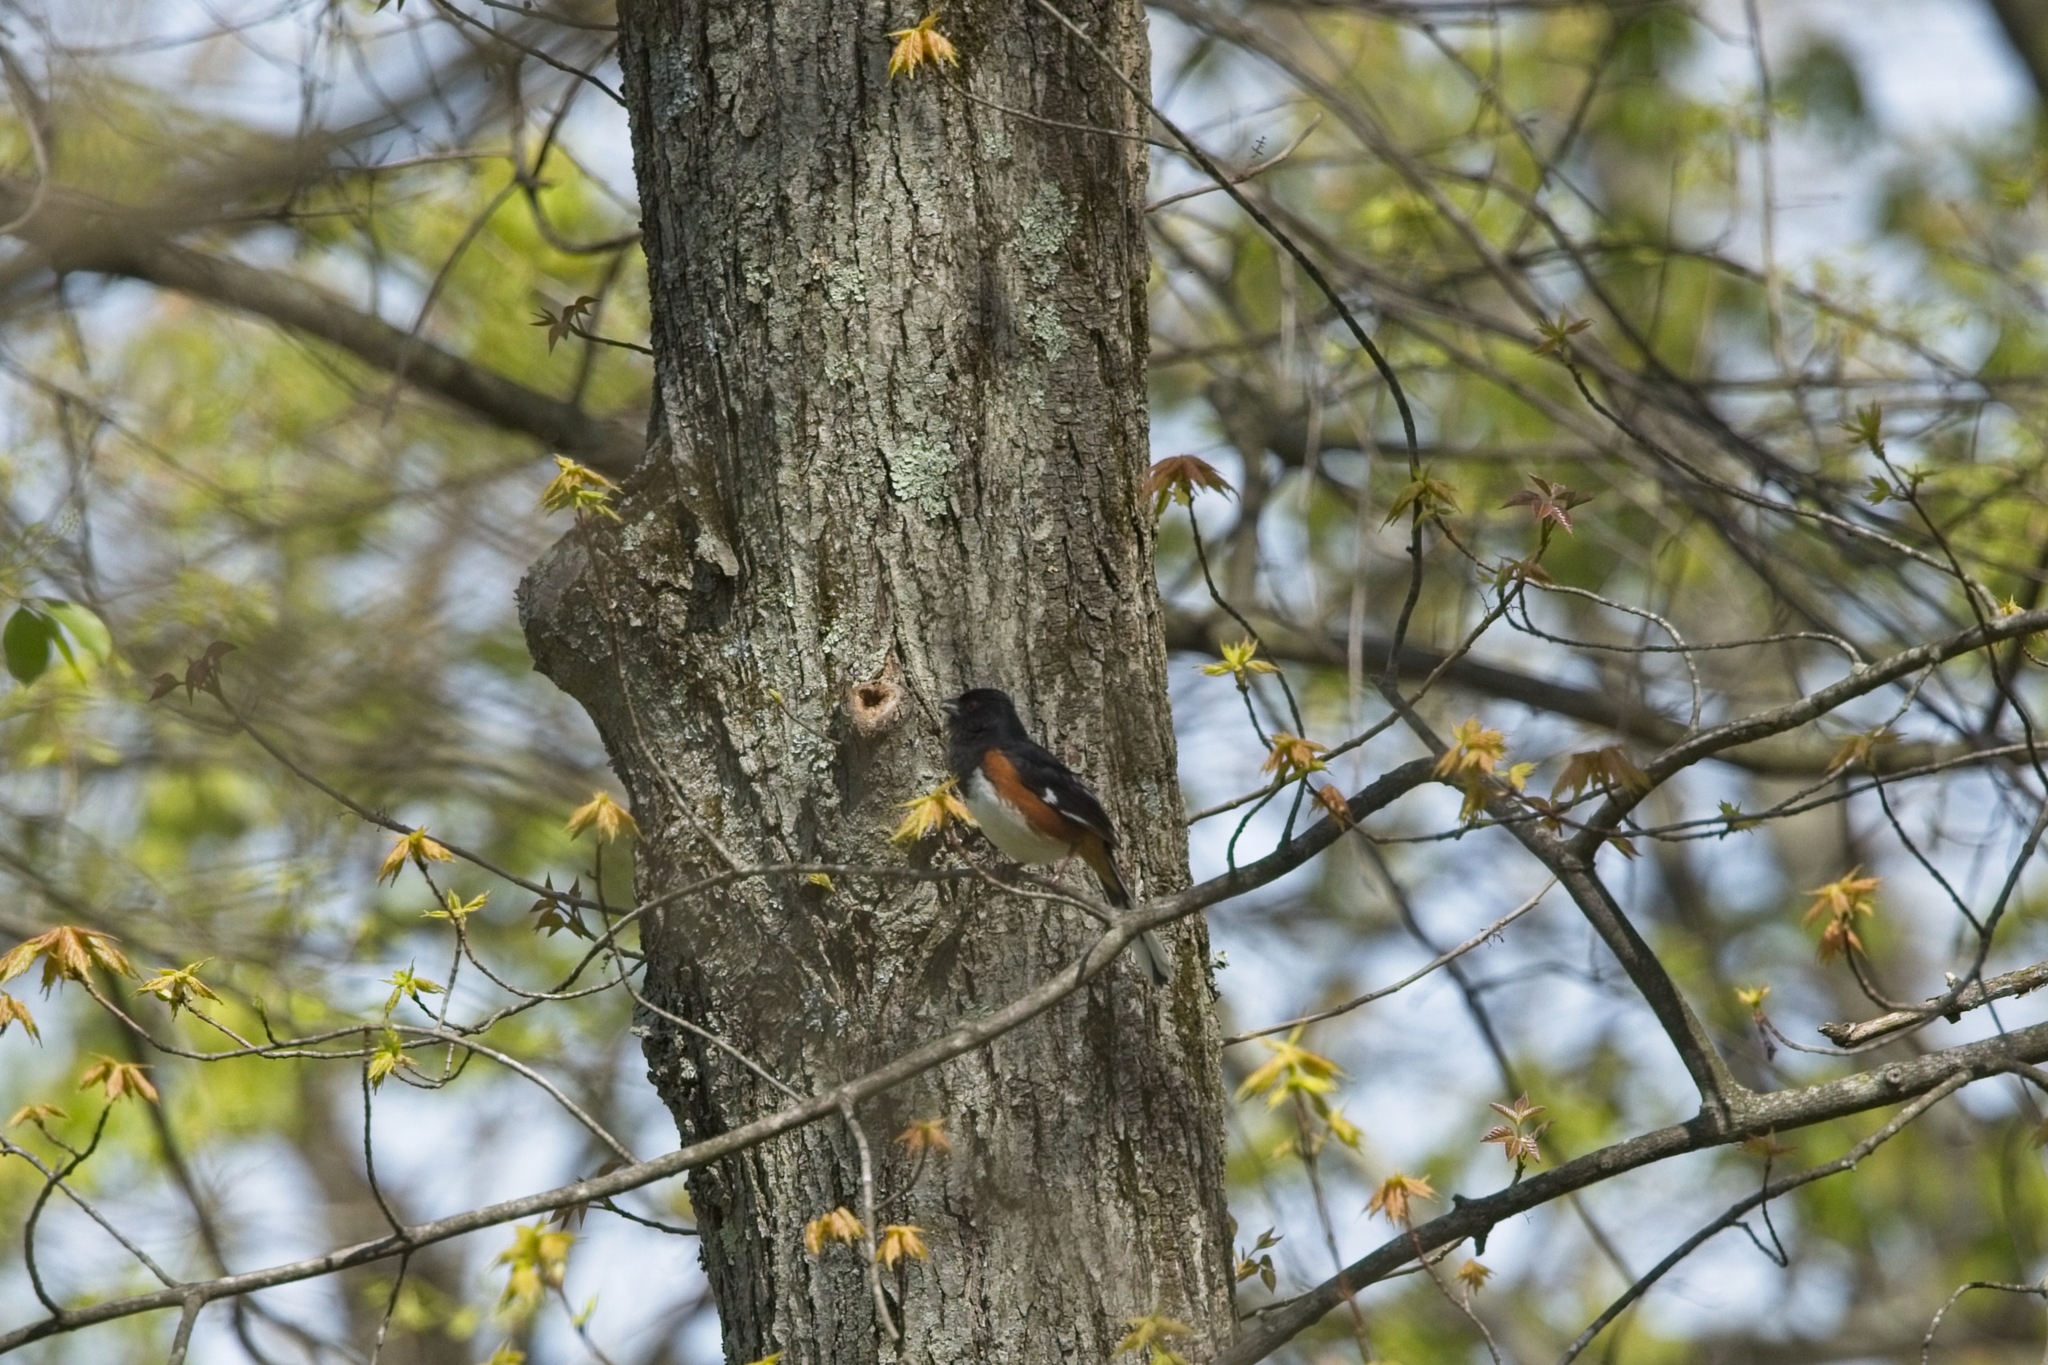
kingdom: Animalia
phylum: Chordata
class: Aves
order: Passeriformes
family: Passerellidae
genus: Pipilo
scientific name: Pipilo erythrophthalmus
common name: Eastern towhee
